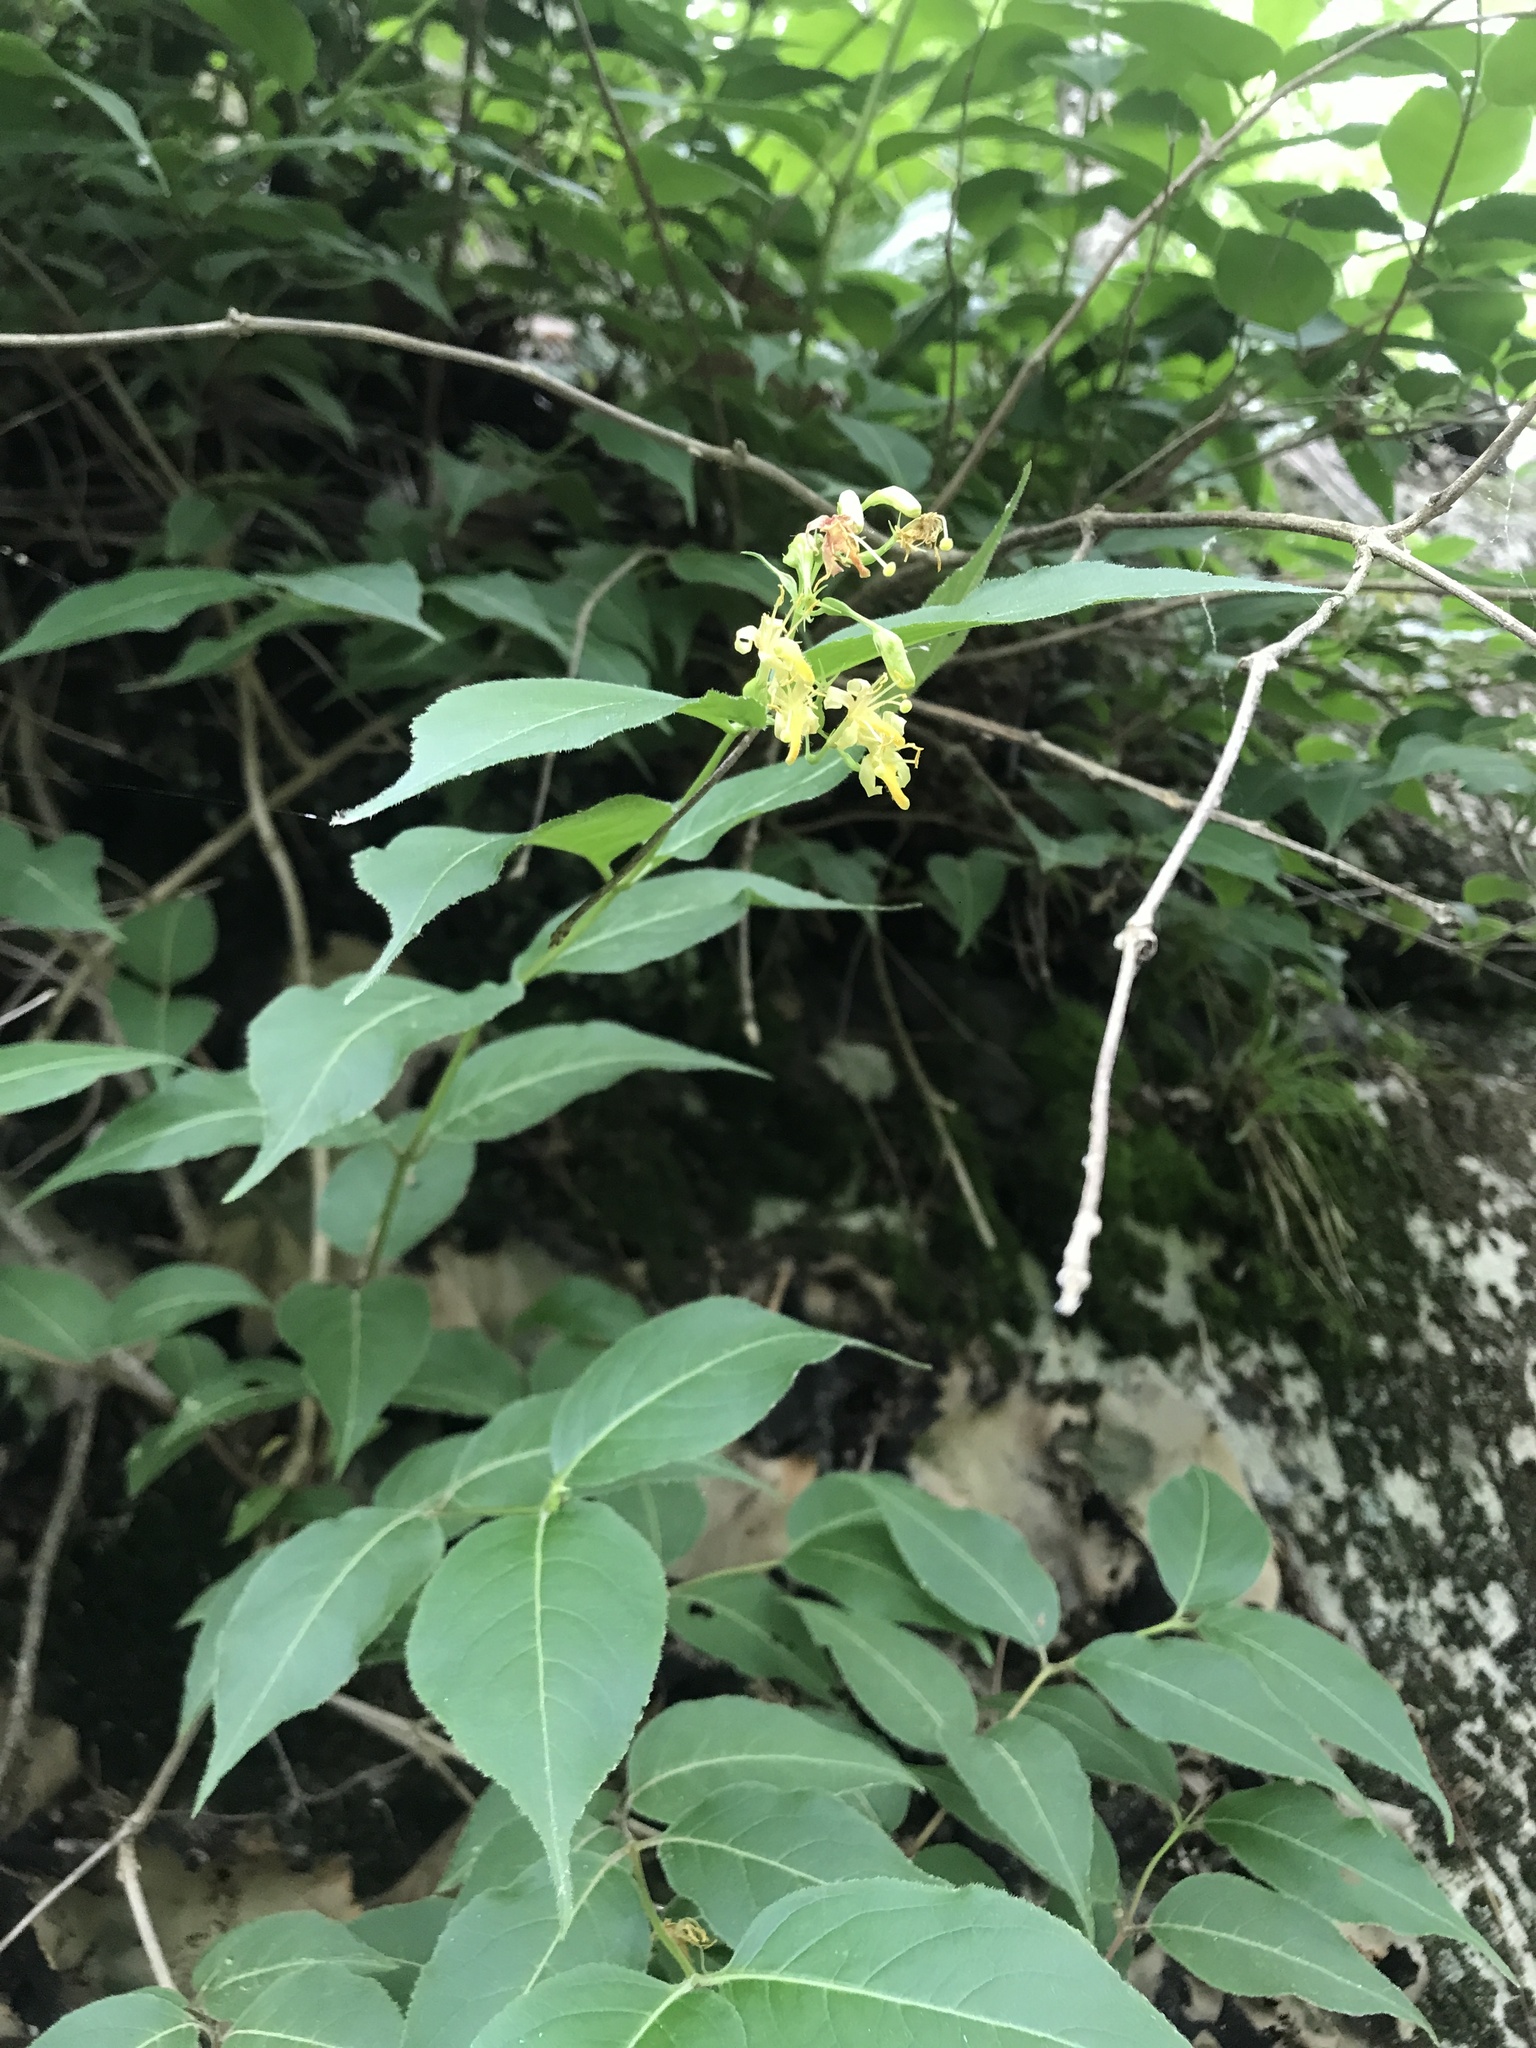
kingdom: Plantae
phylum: Tracheophyta
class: Magnoliopsida
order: Dipsacales
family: Caprifoliaceae
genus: Diervilla
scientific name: Diervilla lonicera
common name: Bush-honeysuckle
